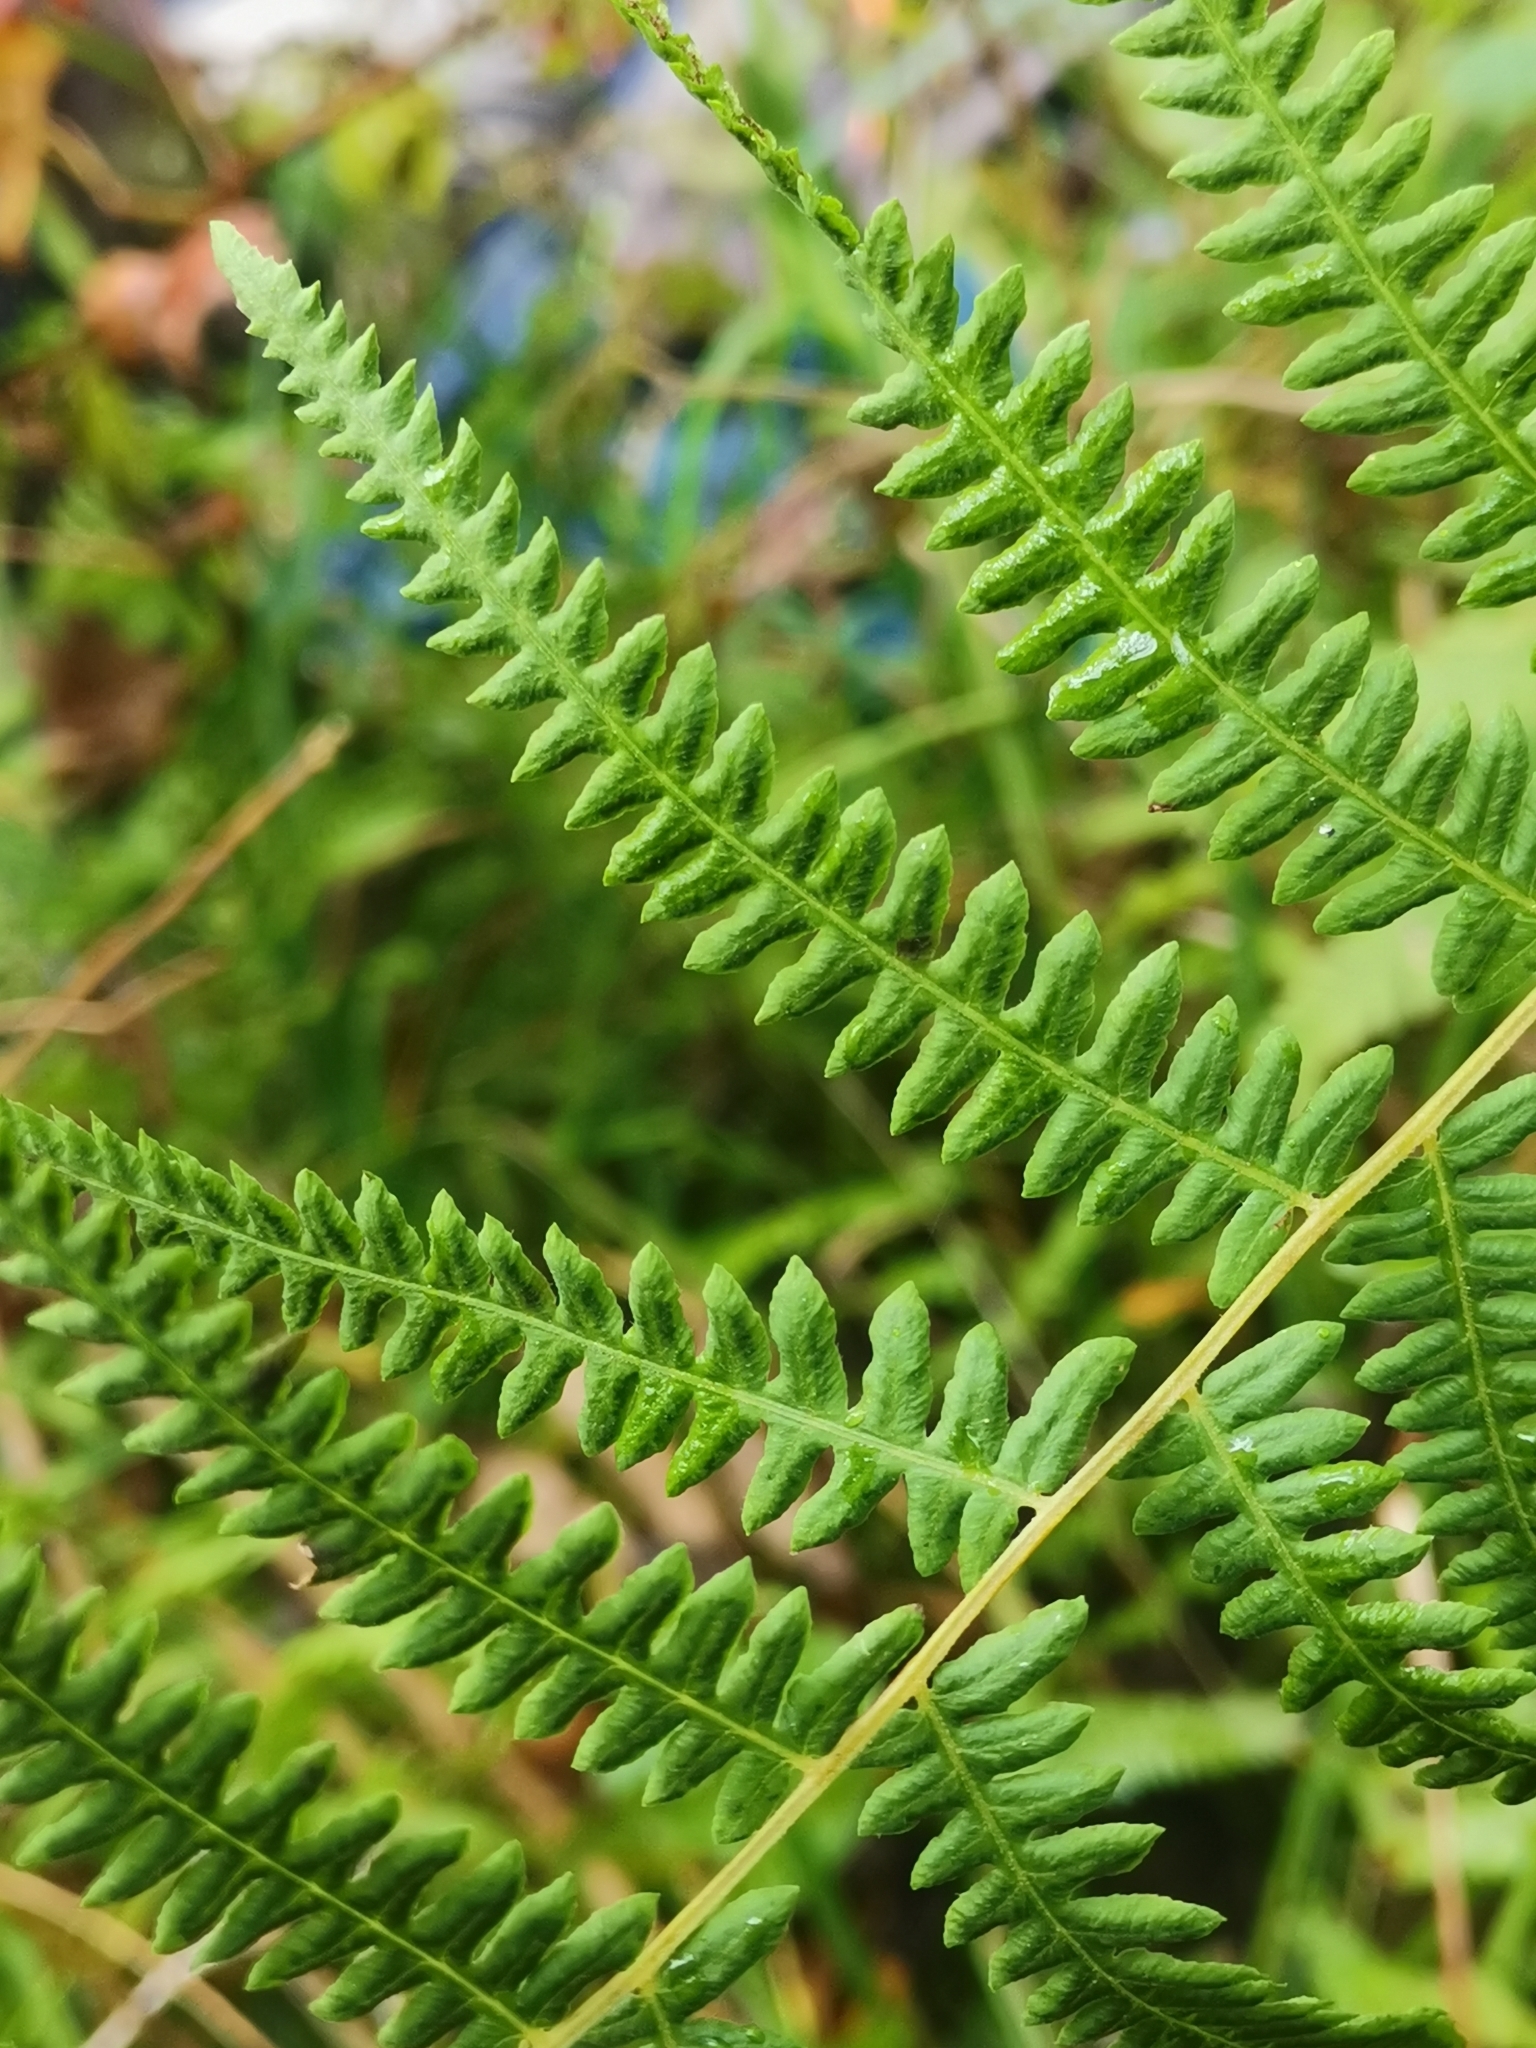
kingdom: Plantae
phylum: Tracheophyta
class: Polypodiopsida
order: Polypodiales
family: Thelypteridaceae
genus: Thelypteris
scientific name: Thelypteris palustris
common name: Marsh fern
